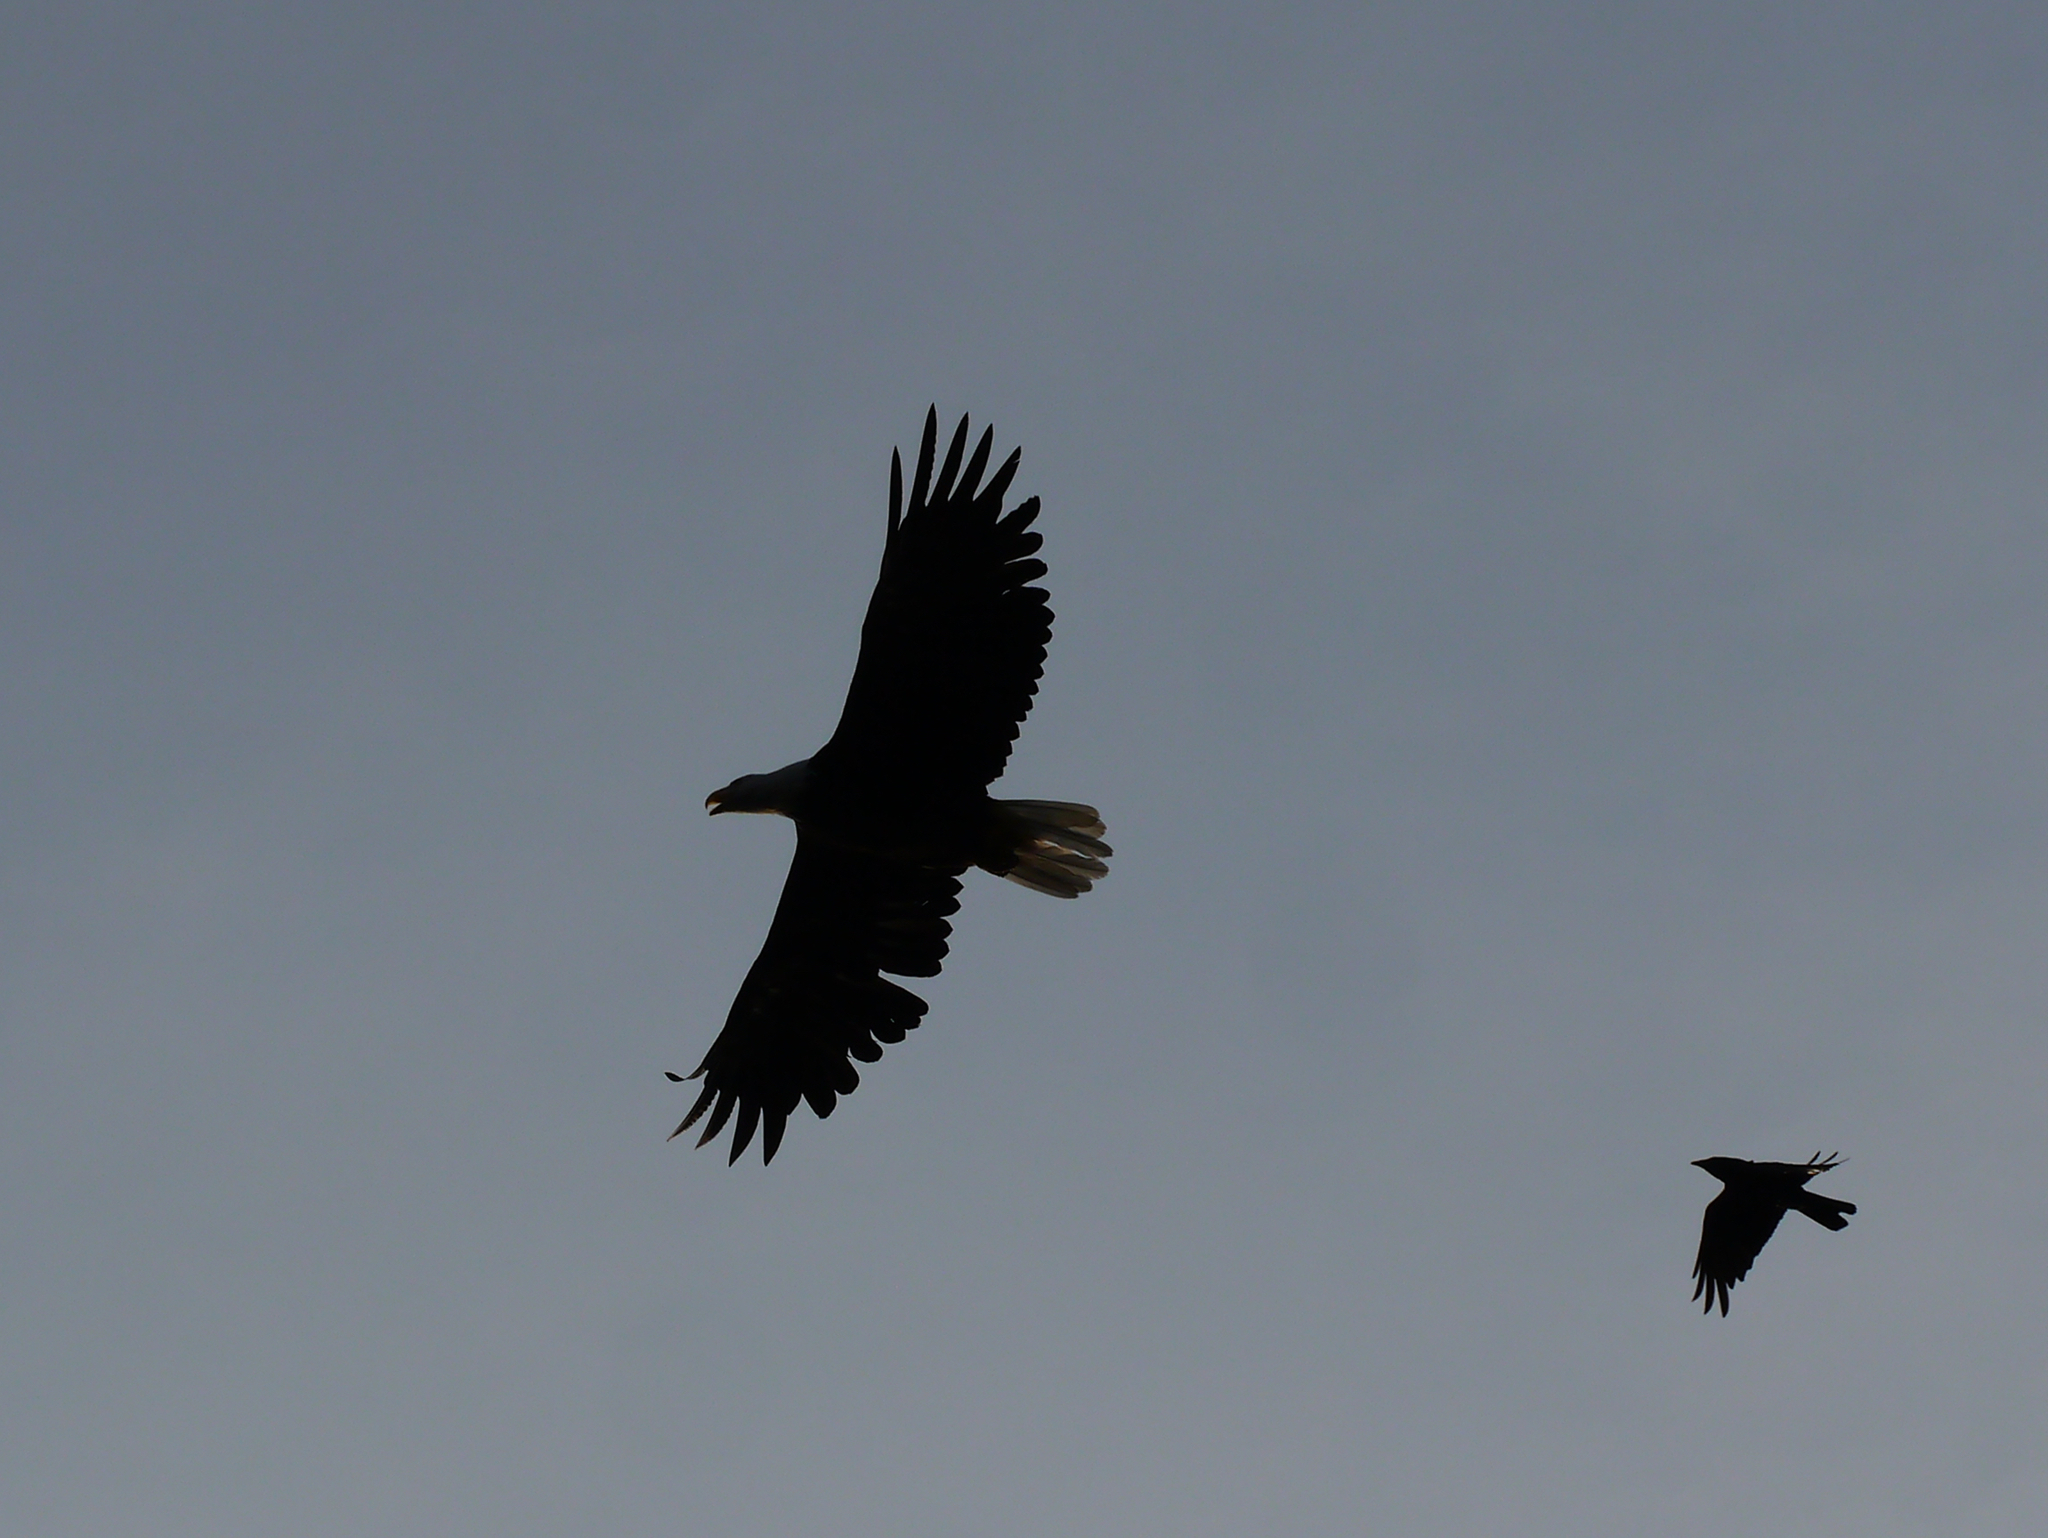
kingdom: Animalia
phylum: Chordata
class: Aves
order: Accipitriformes
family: Accipitridae
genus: Haliaeetus
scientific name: Haliaeetus leucocephalus
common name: Bald eagle
